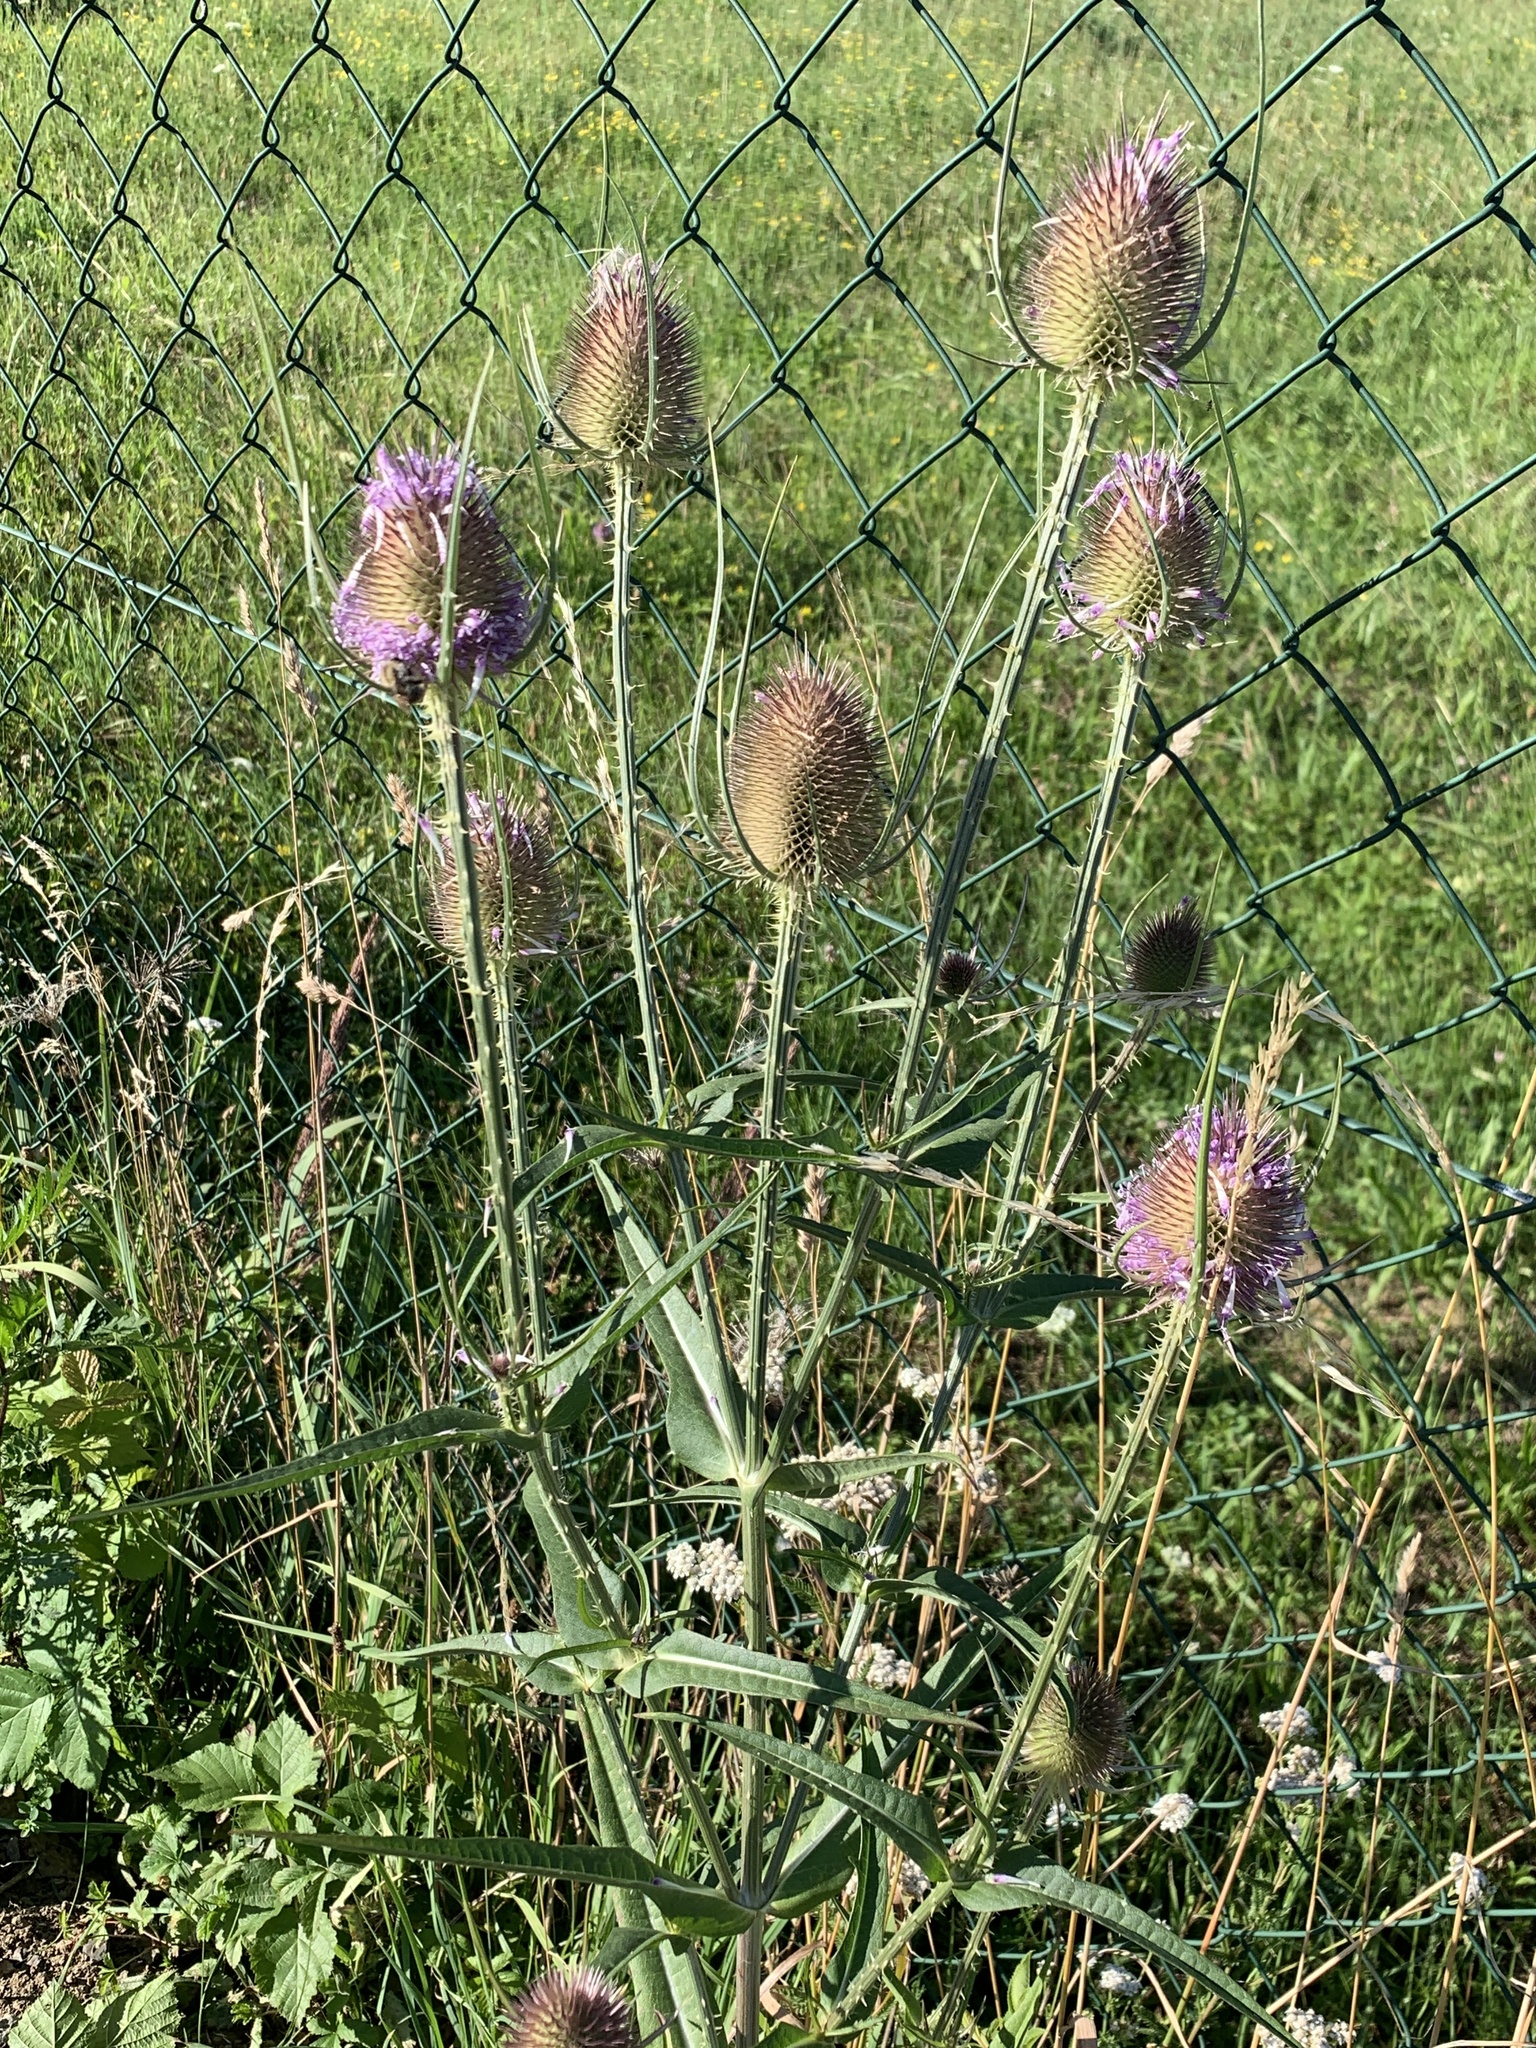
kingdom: Plantae
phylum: Tracheophyta
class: Magnoliopsida
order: Dipsacales
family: Caprifoliaceae
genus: Dipsacus
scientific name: Dipsacus fullonum
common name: Teasel
